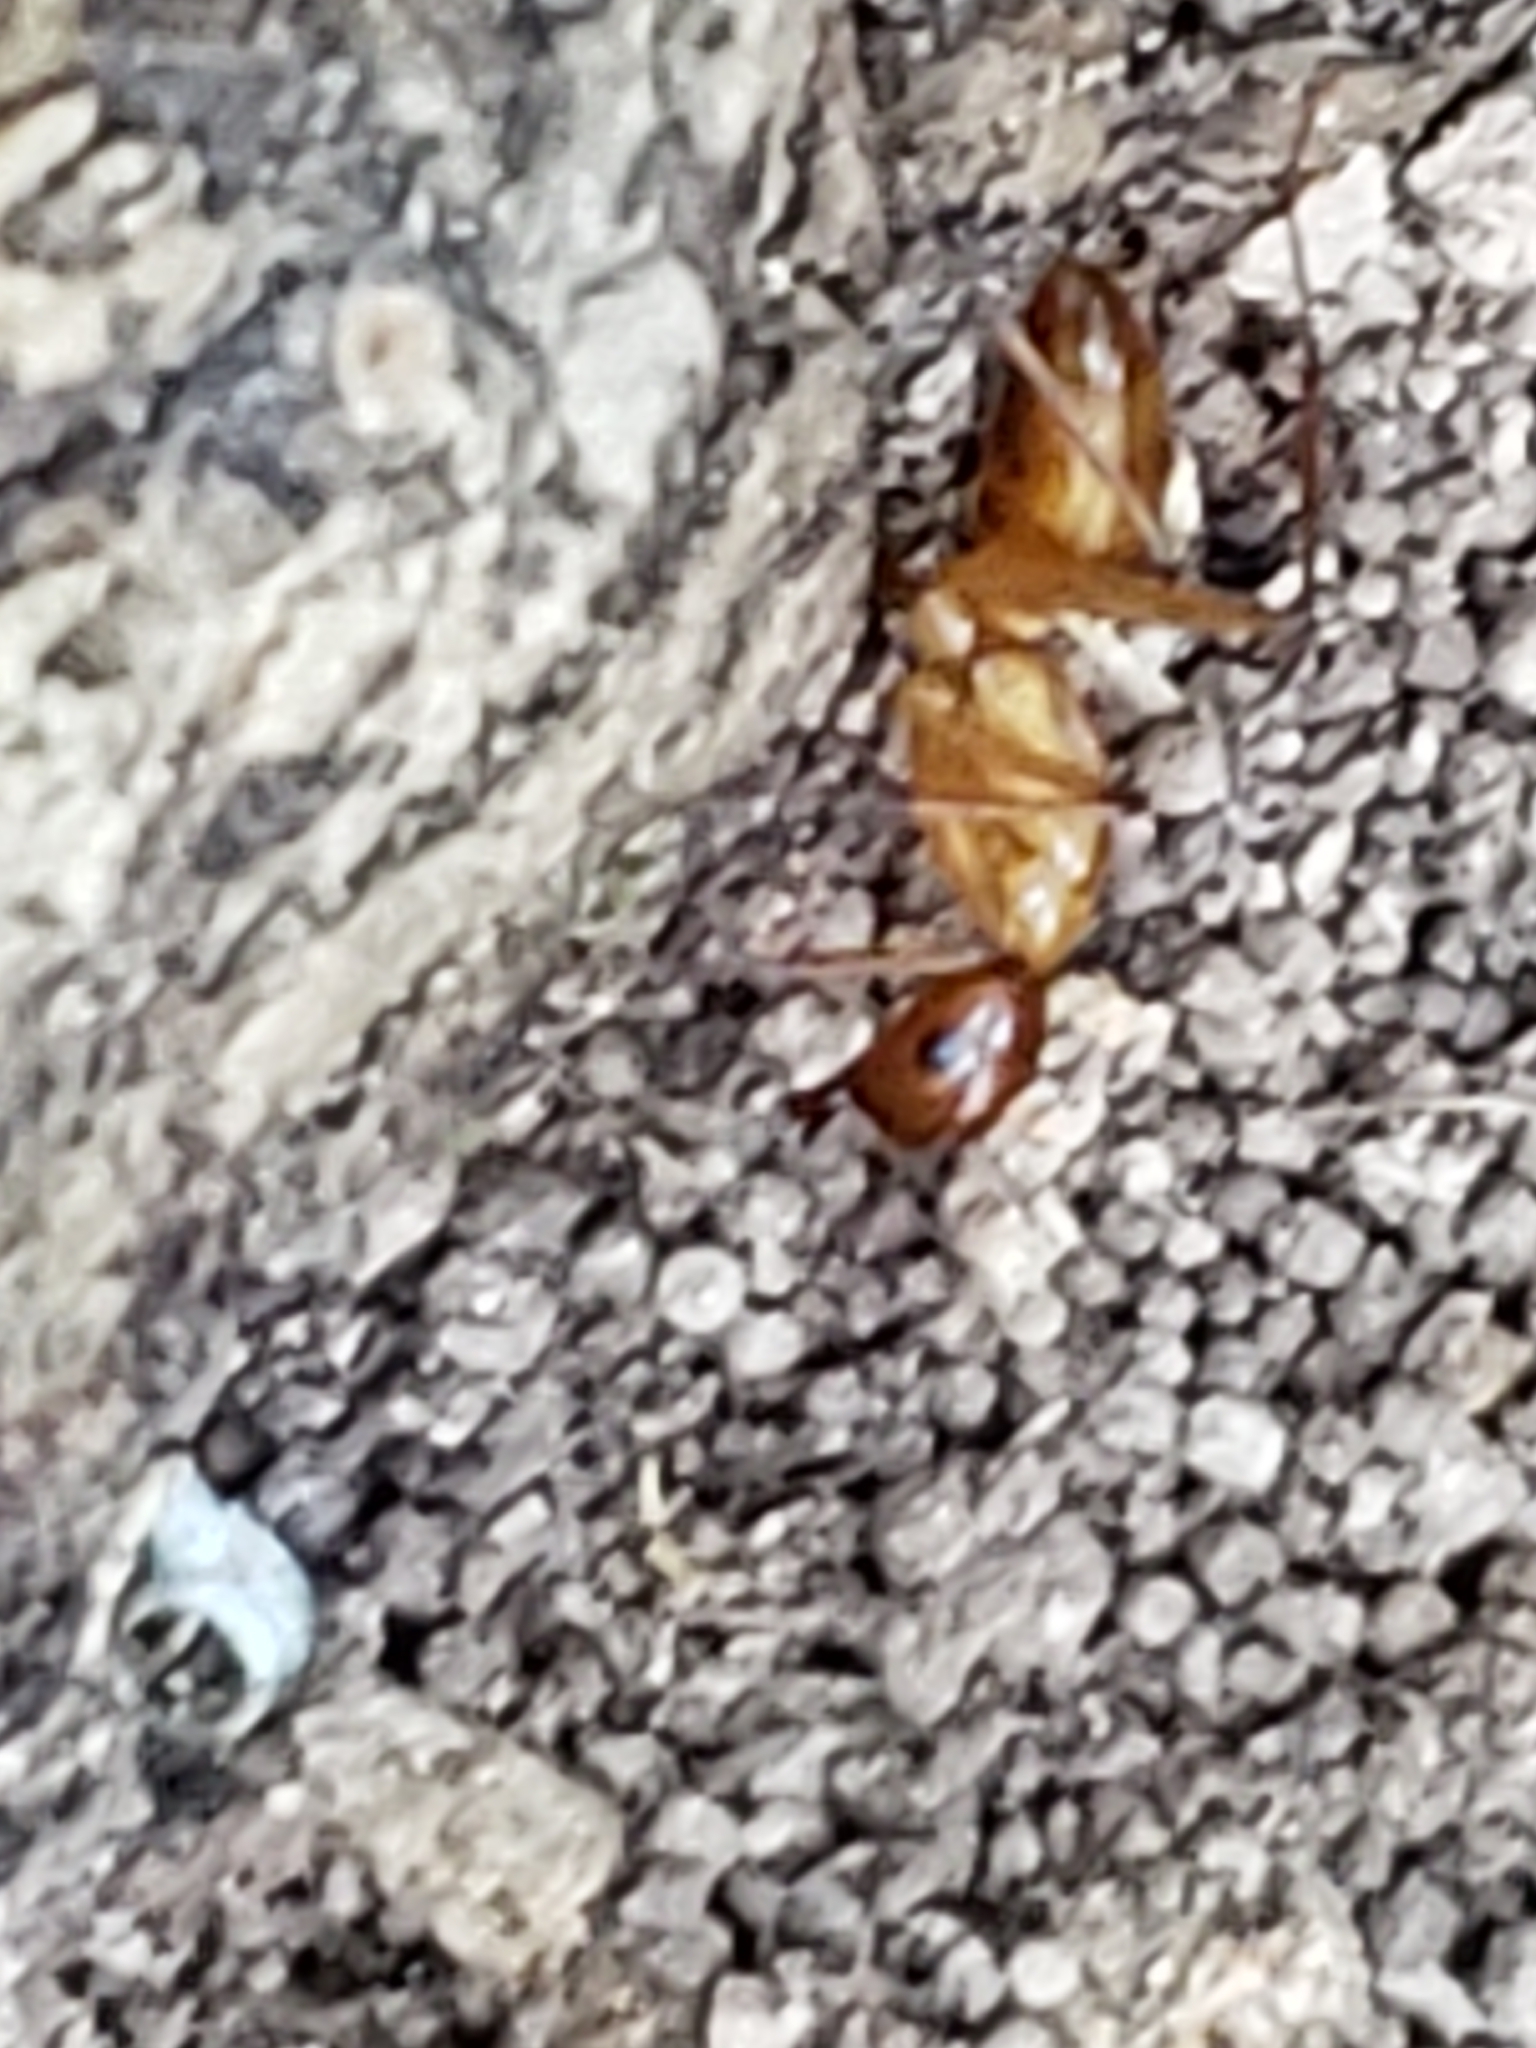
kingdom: Animalia
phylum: Arthropoda
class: Insecta
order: Hymenoptera
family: Formicidae
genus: Camponotus
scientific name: Camponotus castaneus
